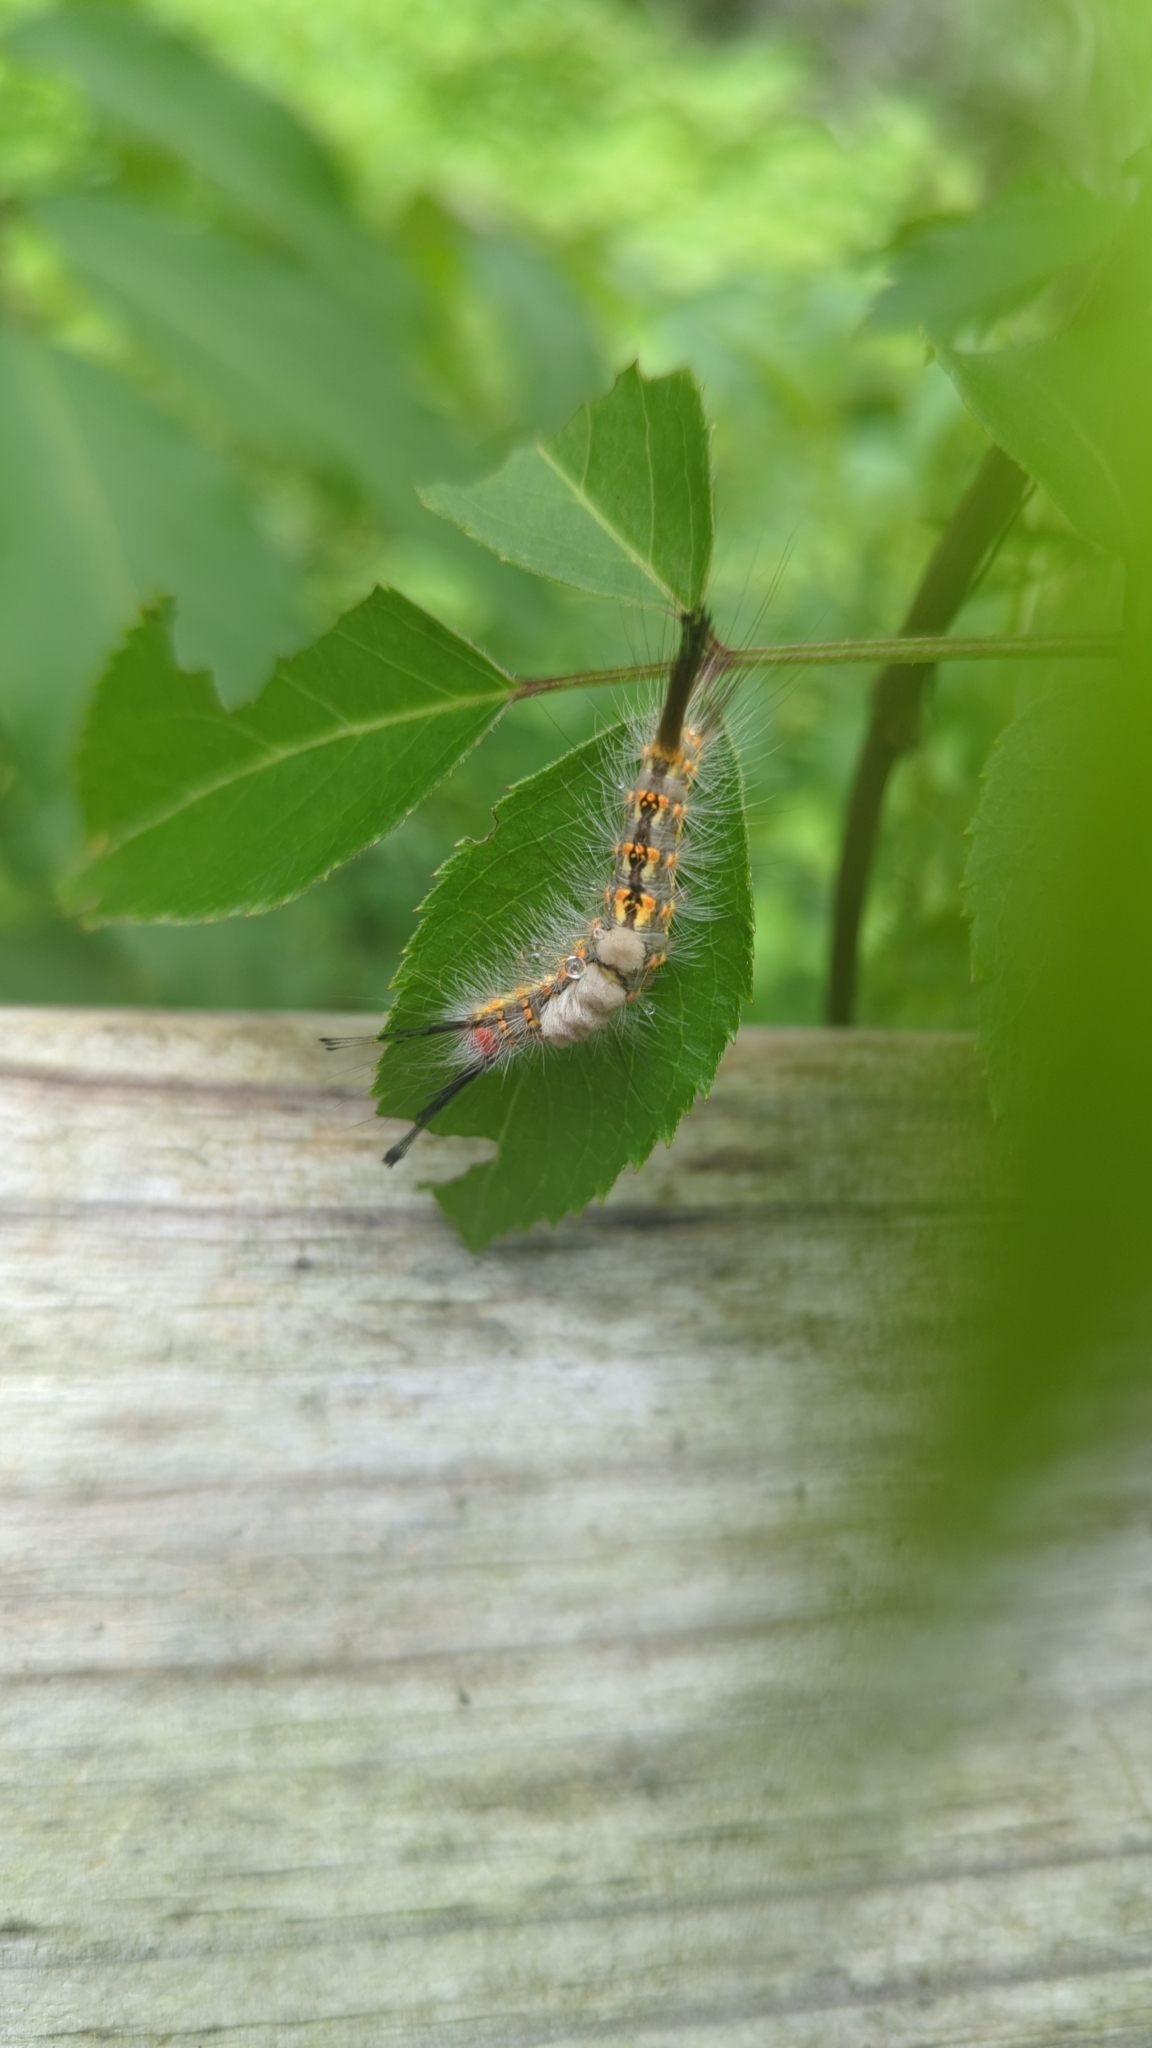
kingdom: Animalia
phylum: Arthropoda
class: Insecta
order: Lepidoptera
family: Erebidae
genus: Orgyia
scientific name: Orgyia detrita
